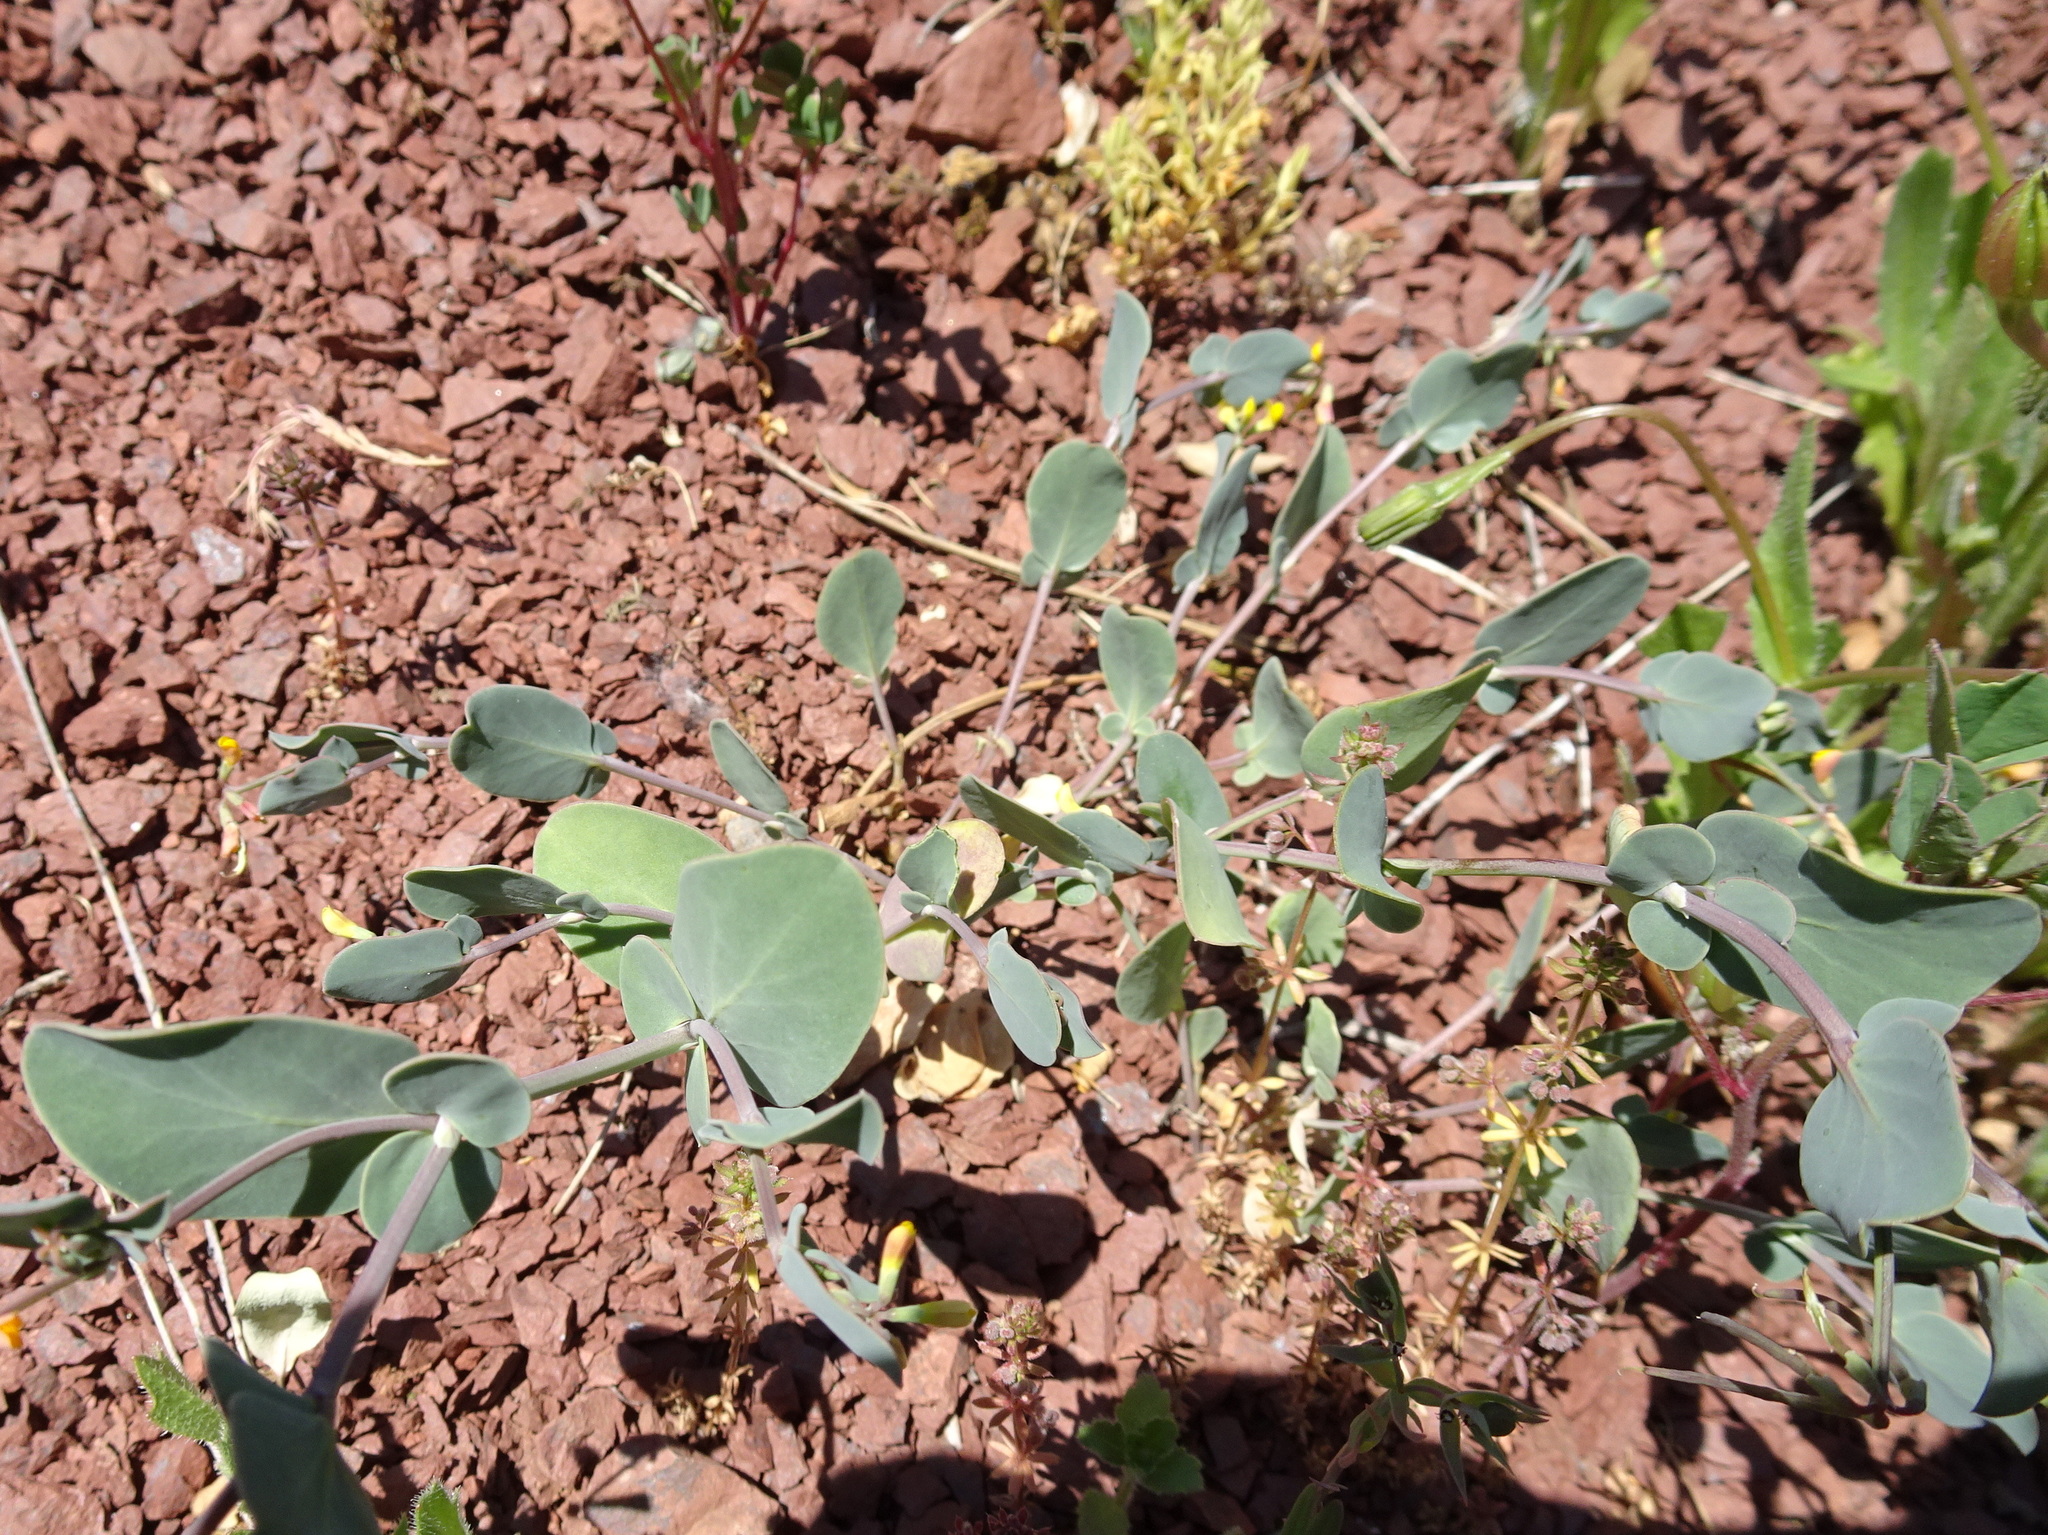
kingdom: Plantae
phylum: Tracheophyta
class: Magnoliopsida
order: Fabales
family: Fabaceae
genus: Coronilla
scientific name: Coronilla scorpioides
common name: Annual scorpion-vetch
